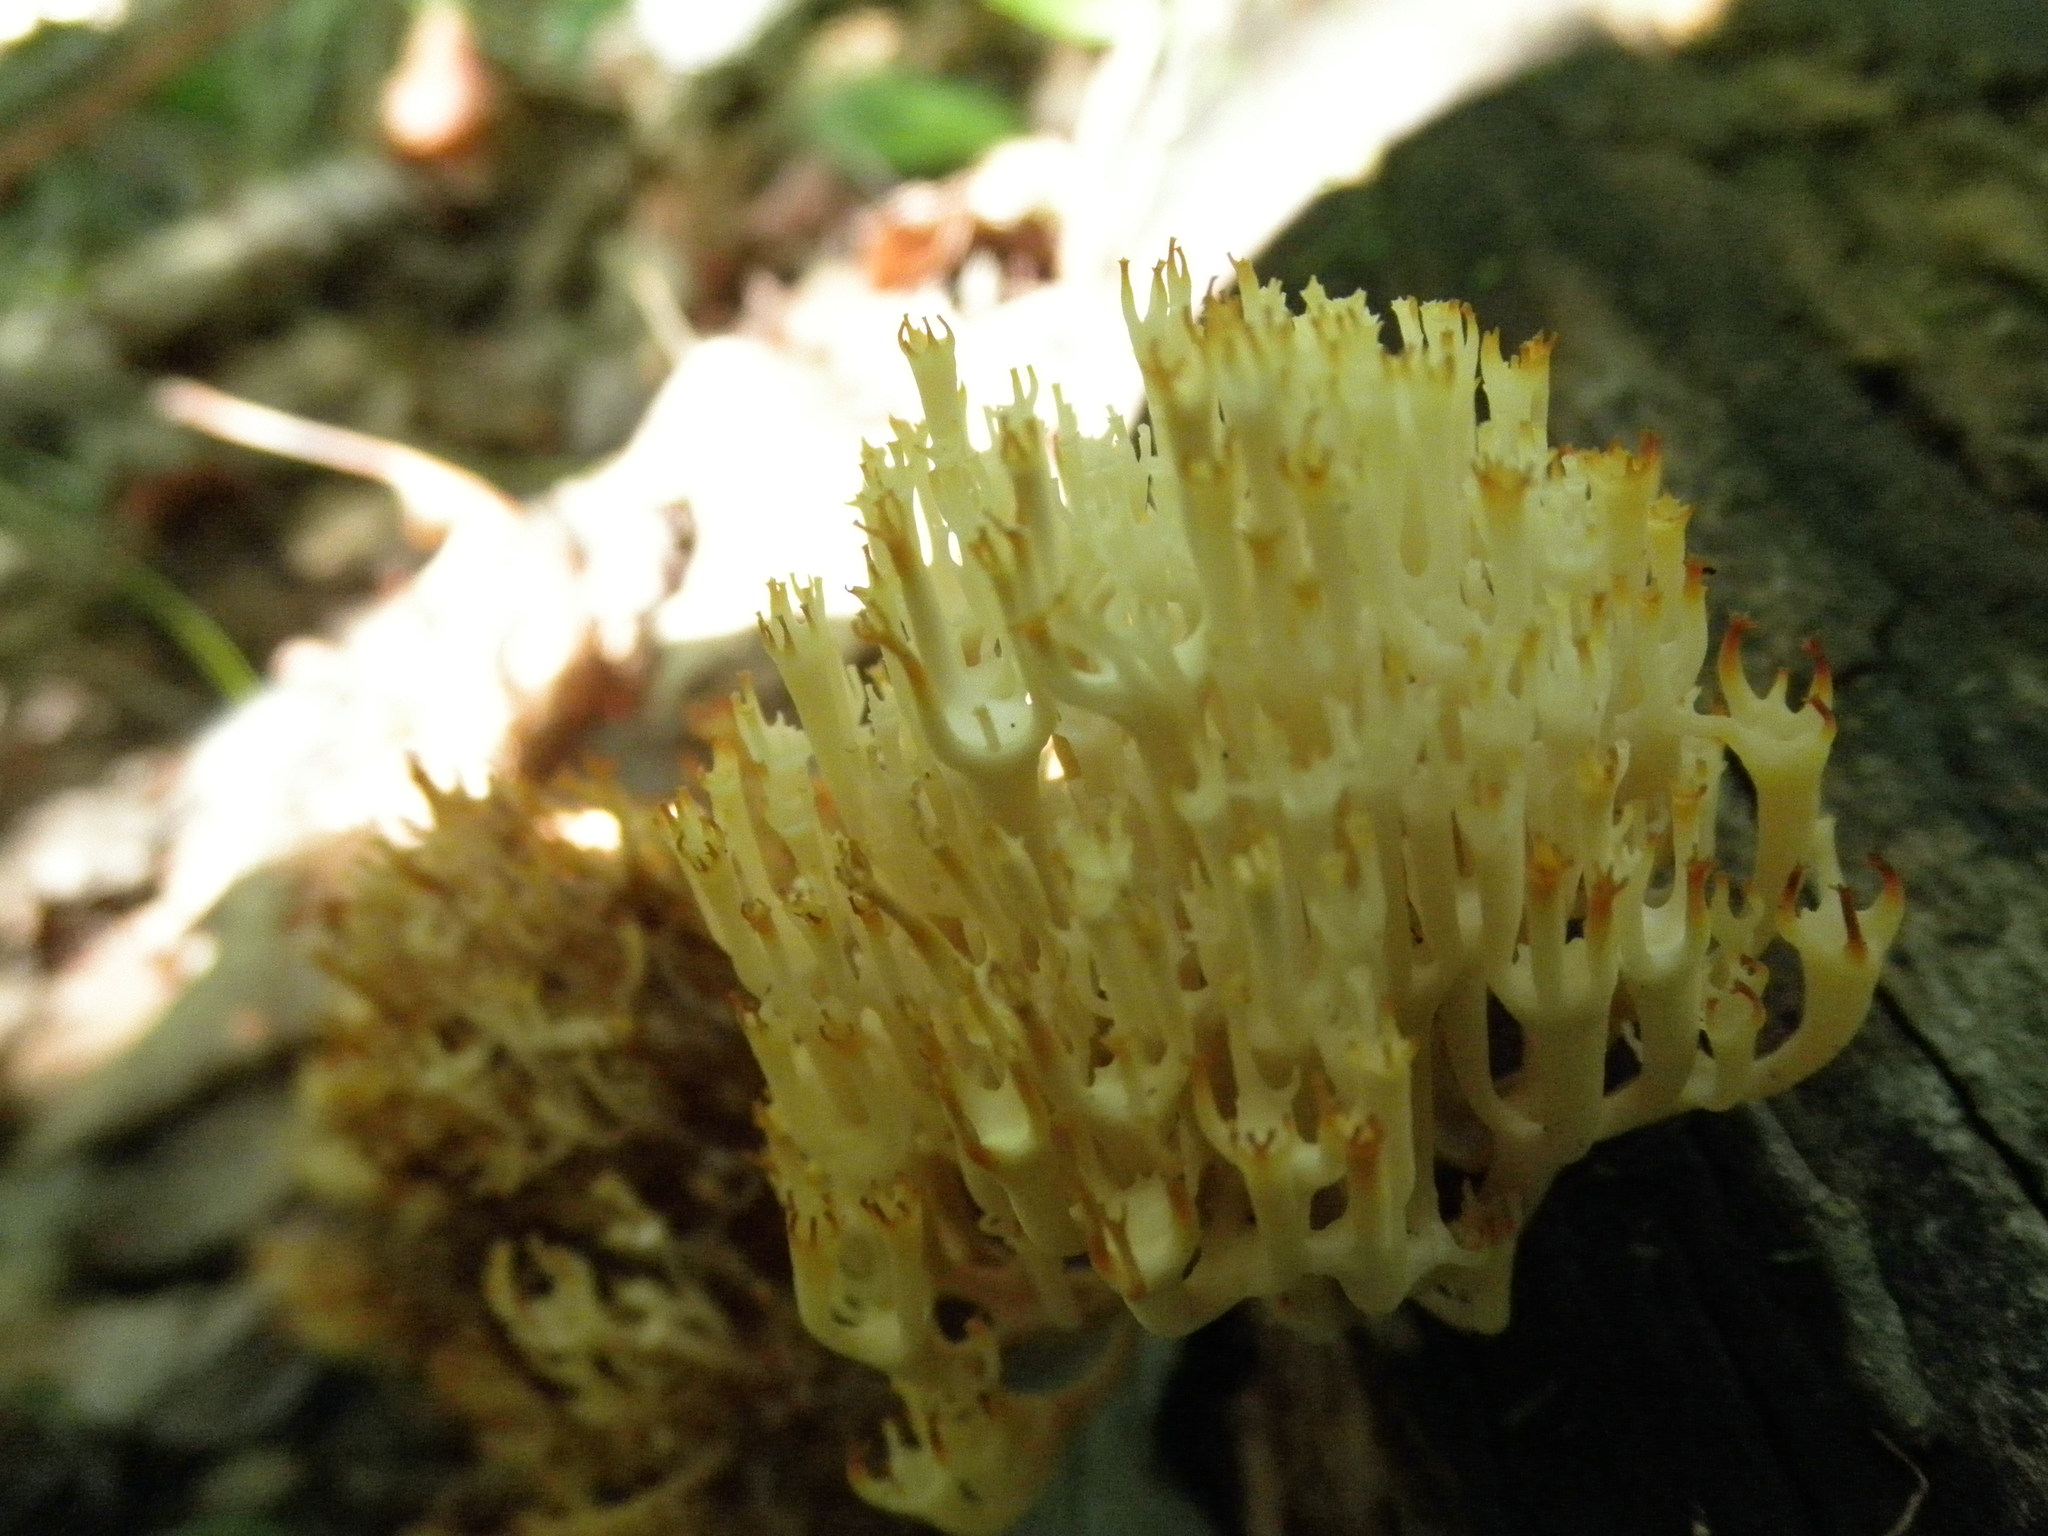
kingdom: Fungi
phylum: Basidiomycota
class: Agaricomycetes
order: Russulales
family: Auriscalpiaceae
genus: Artomyces
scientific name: Artomyces pyxidatus
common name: Crown-tipped coral fungus
